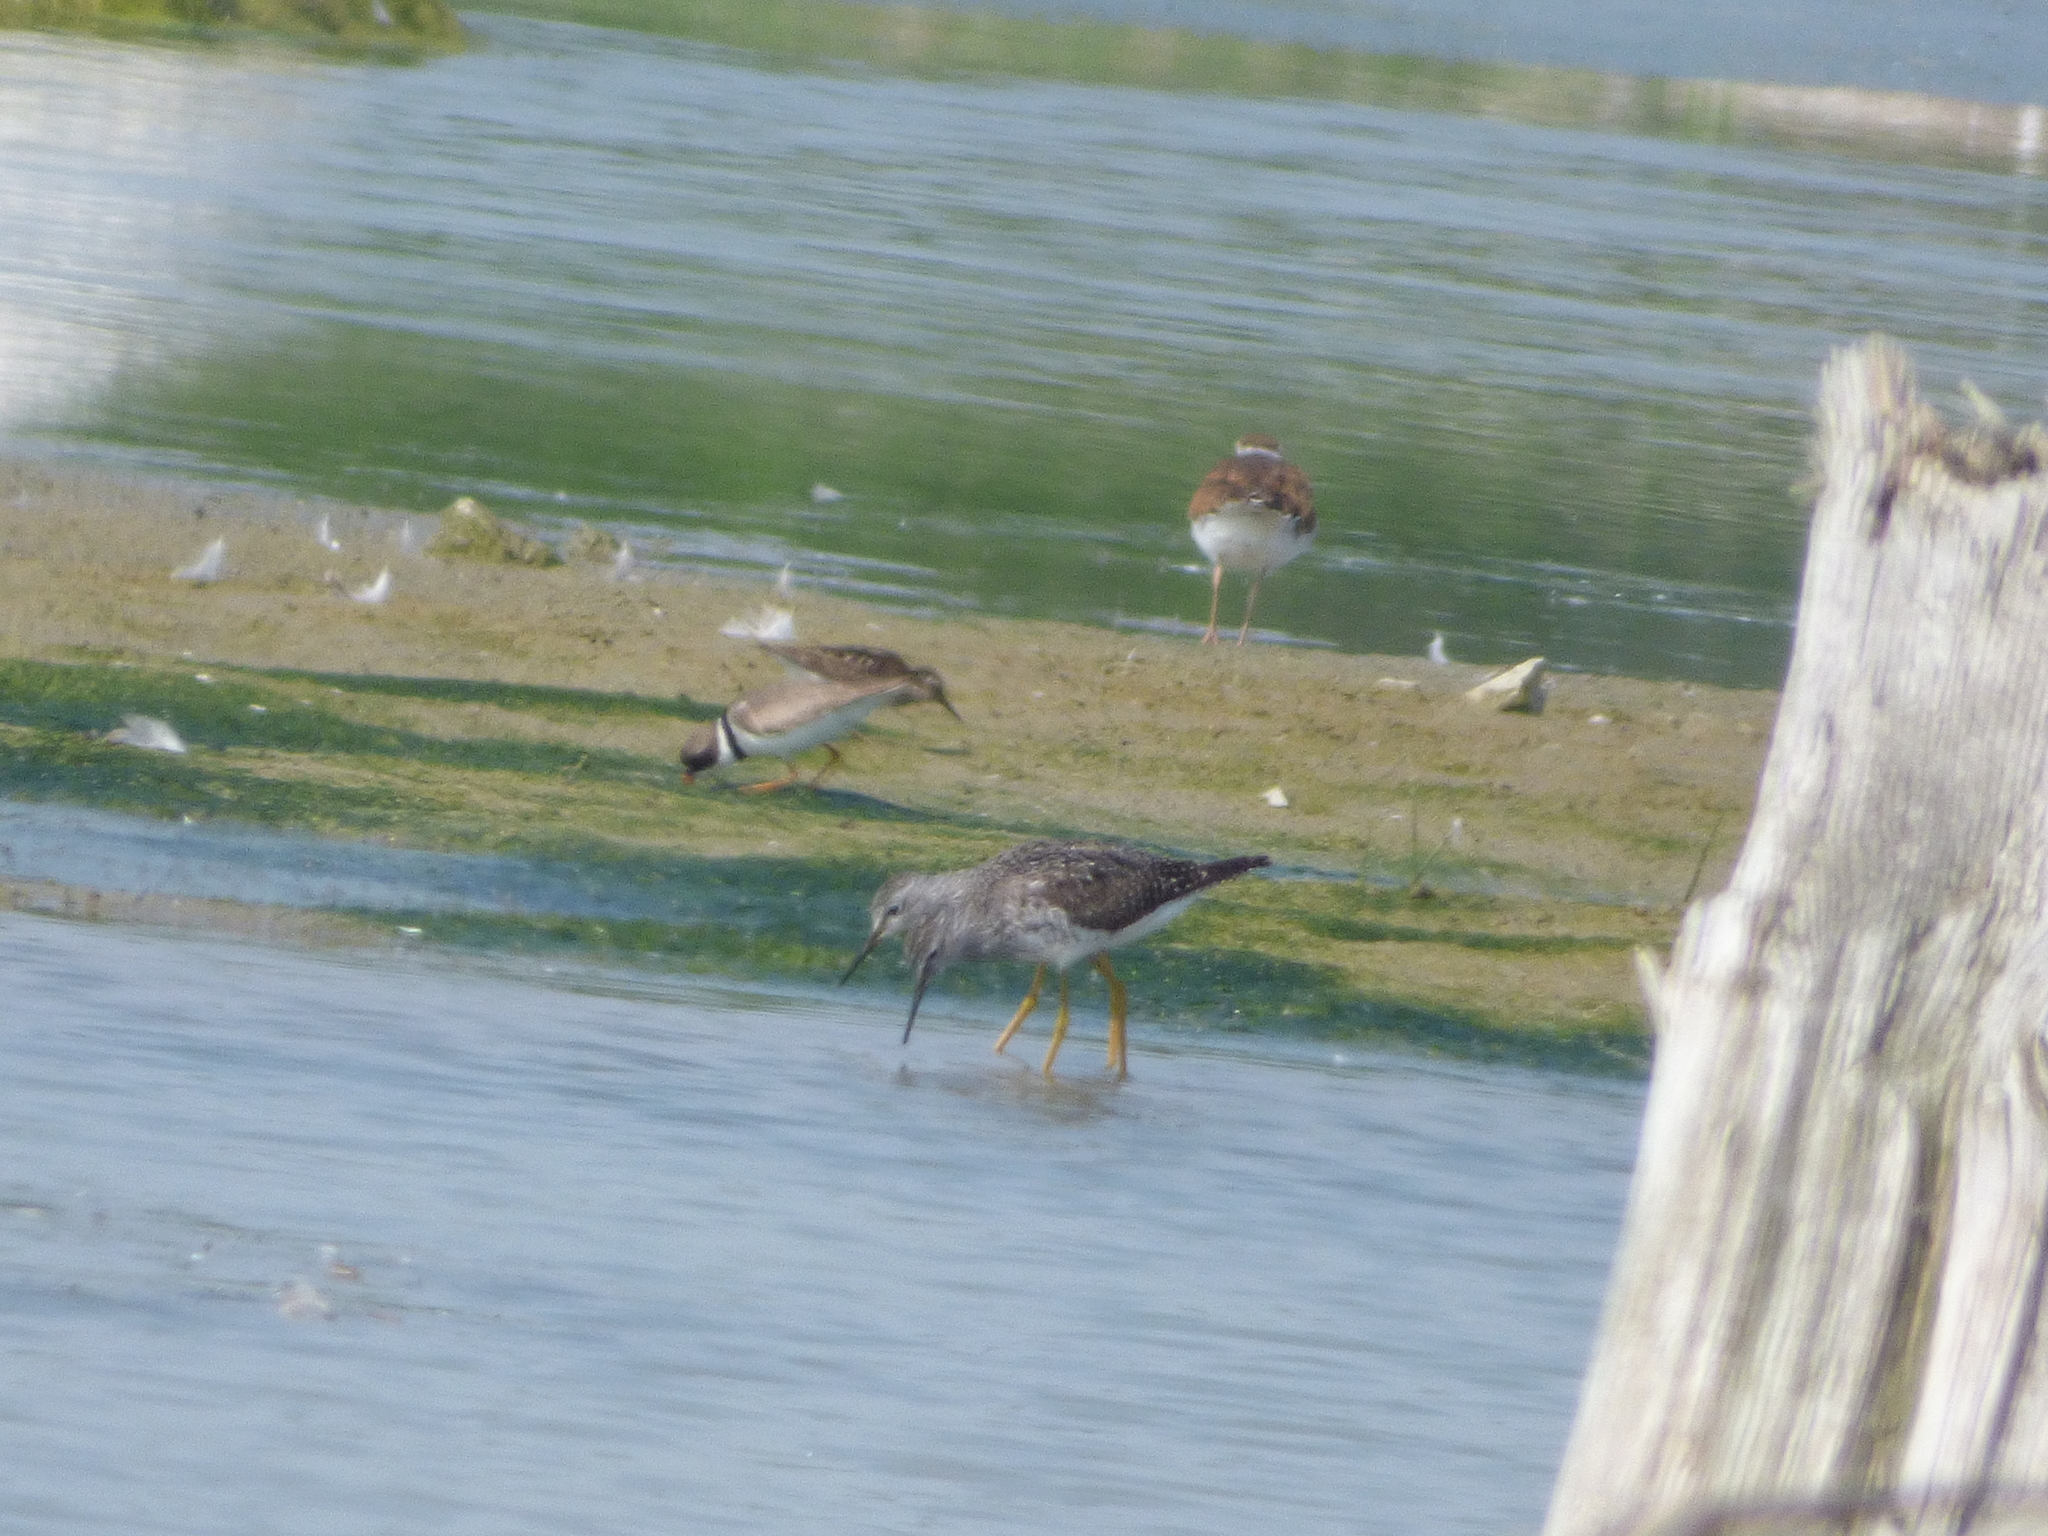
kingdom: Animalia
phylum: Chordata
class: Aves
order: Charadriiformes
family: Scolopacidae
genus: Tringa
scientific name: Tringa flavipes
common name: Lesser yellowlegs
